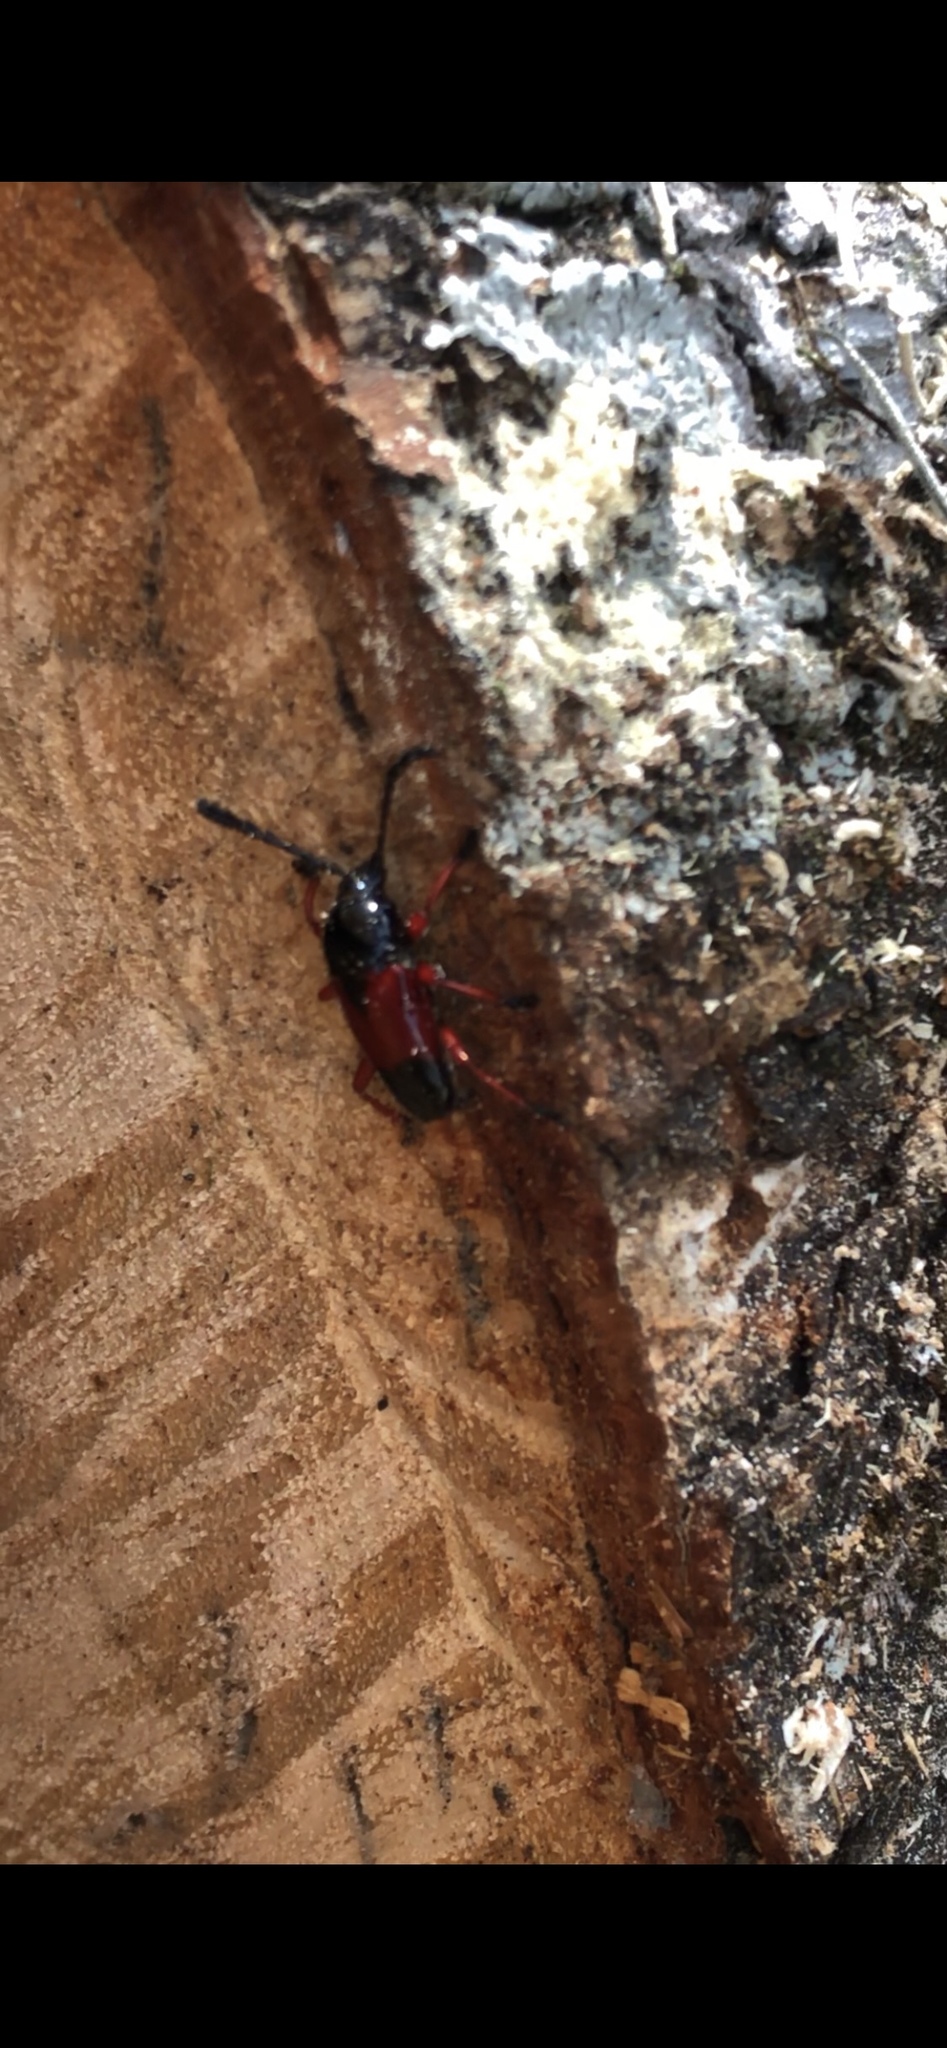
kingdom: Animalia
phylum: Arthropoda
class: Insecta
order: Coleoptera
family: Cerambycidae
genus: Lissonotus
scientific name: Lissonotus corallinus
